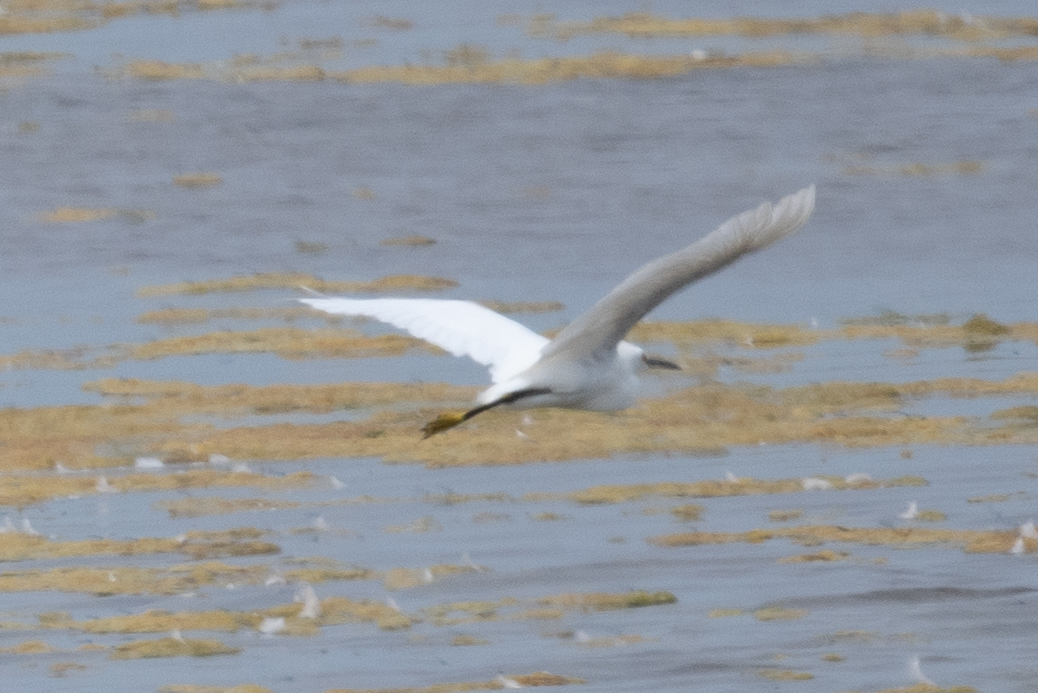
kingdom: Animalia
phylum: Chordata
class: Aves
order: Pelecaniformes
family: Ardeidae
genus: Egretta
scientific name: Egretta thula
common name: Snowy egret
